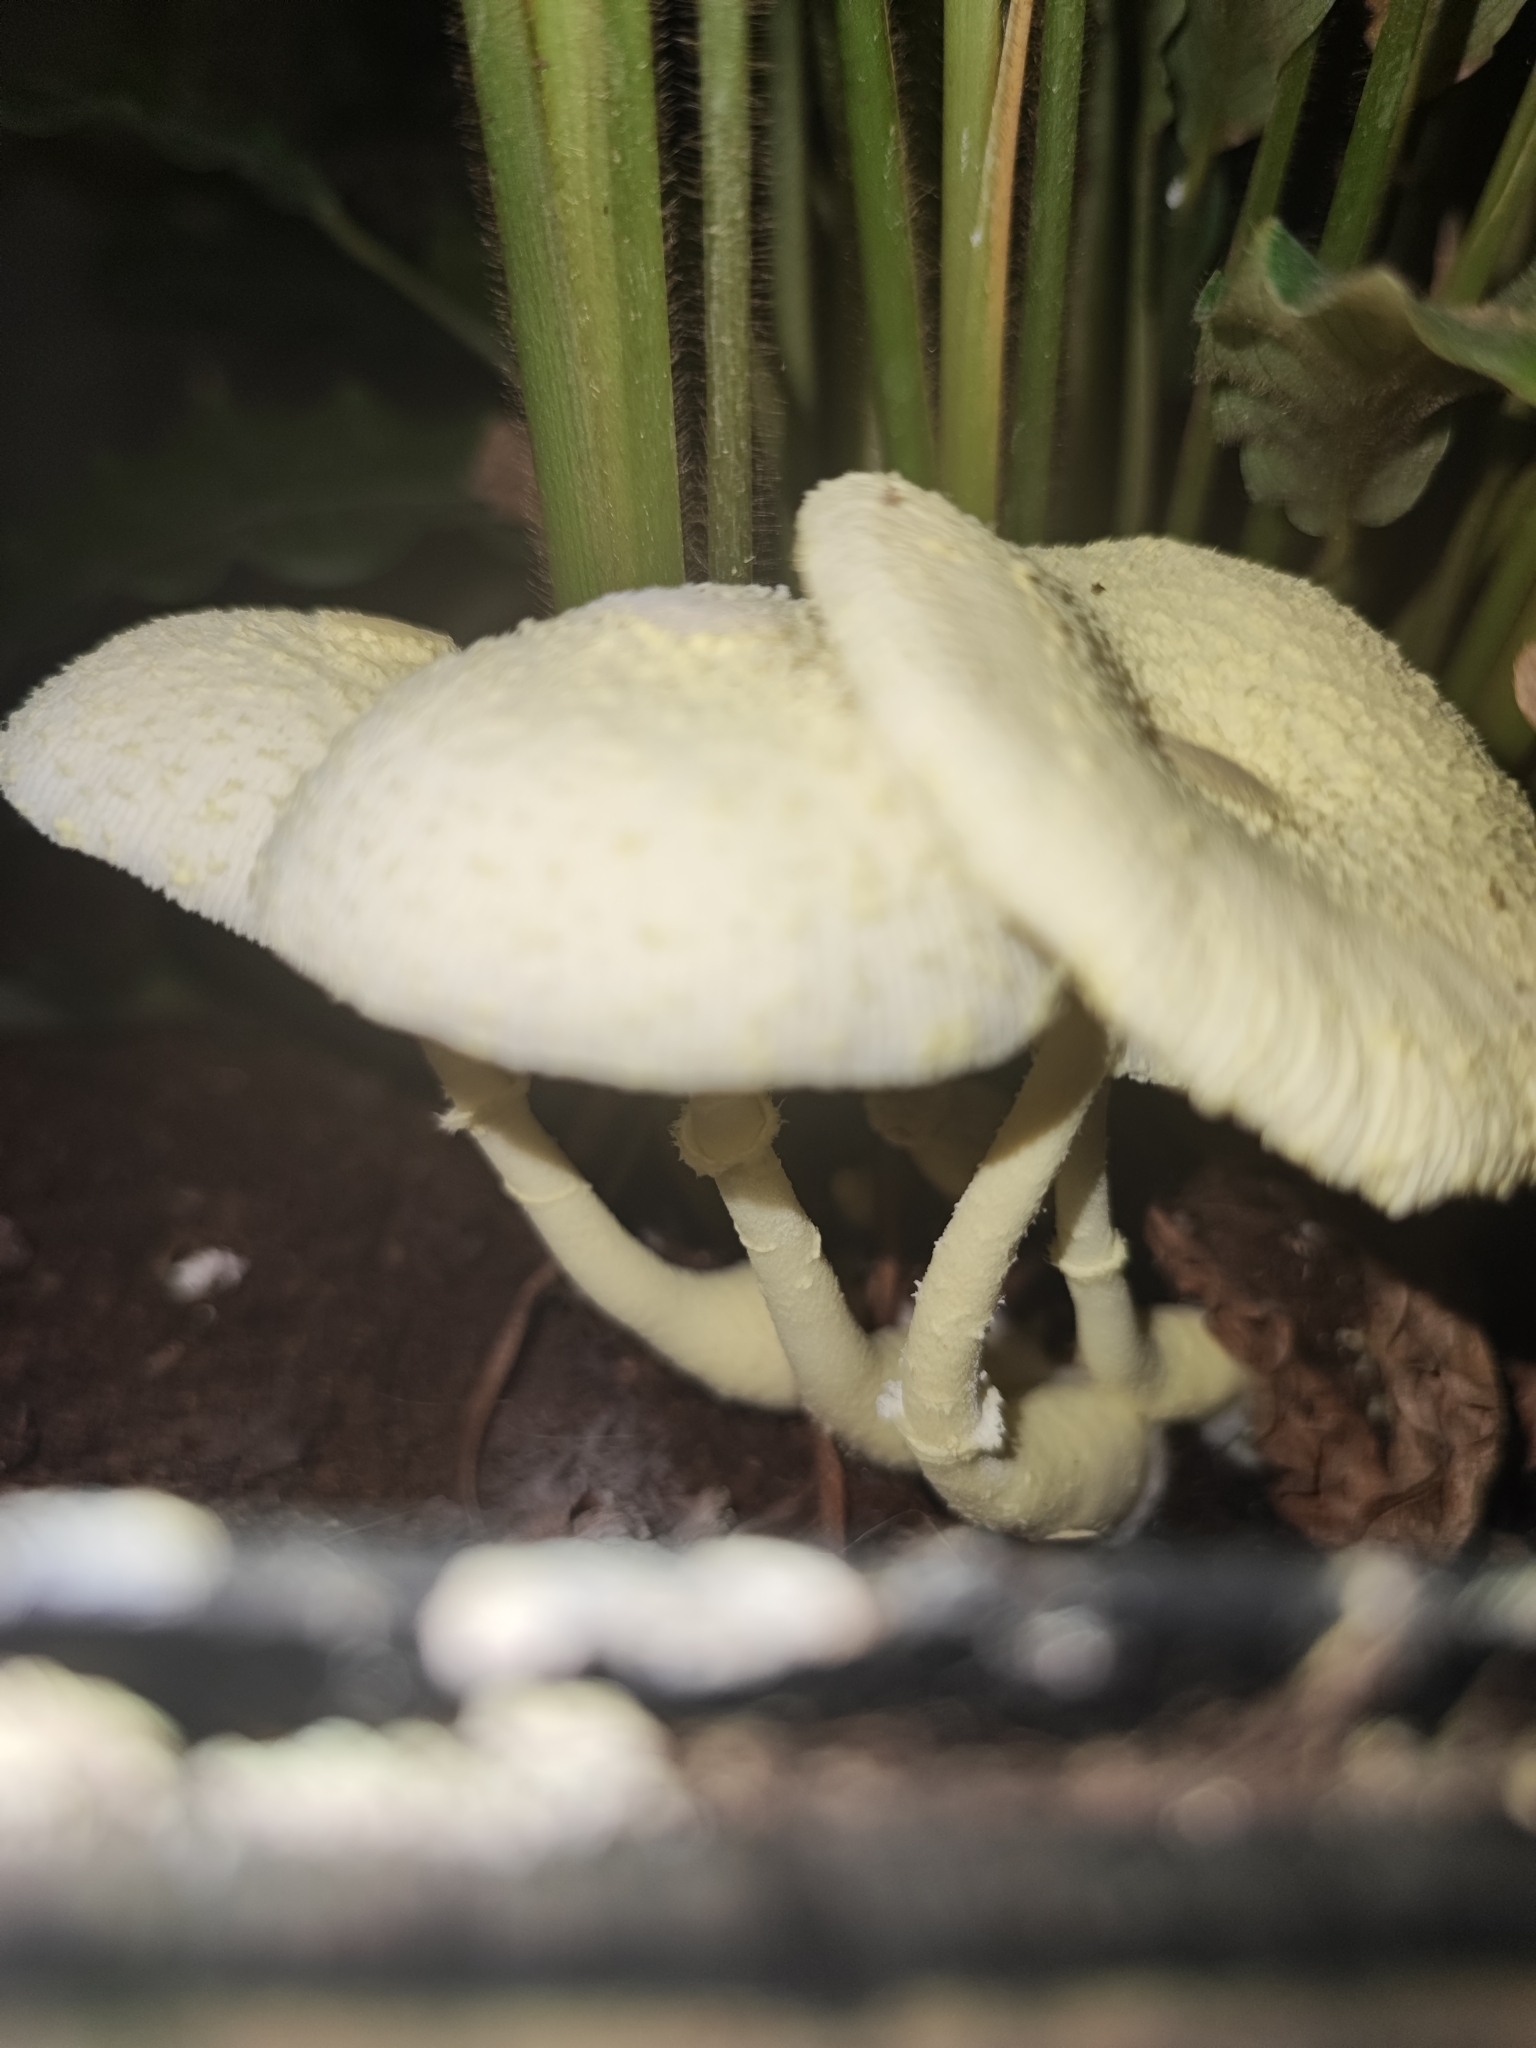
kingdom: Fungi
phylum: Basidiomycota
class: Agaricomycetes
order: Agaricales
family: Agaricaceae
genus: Leucocoprinus
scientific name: Leucocoprinus birnbaumii
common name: Plantpot dapperling
